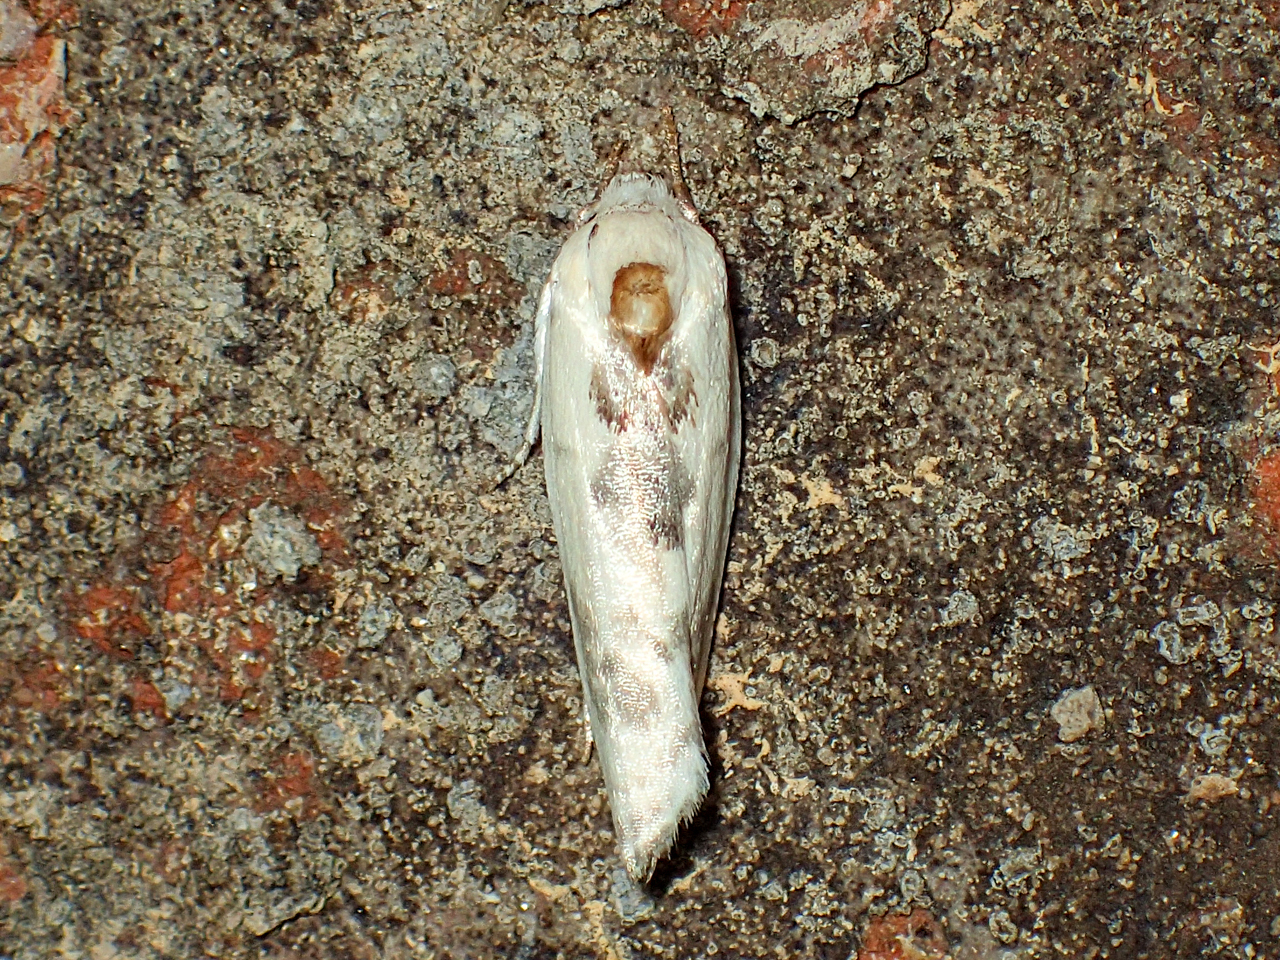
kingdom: Animalia
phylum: Arthropoda
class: Insecta
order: Lepidoptera
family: Depressariidae
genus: Antaeotricha
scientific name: Antaeotricha leucillana
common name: Pale gray bird-dropping moth
